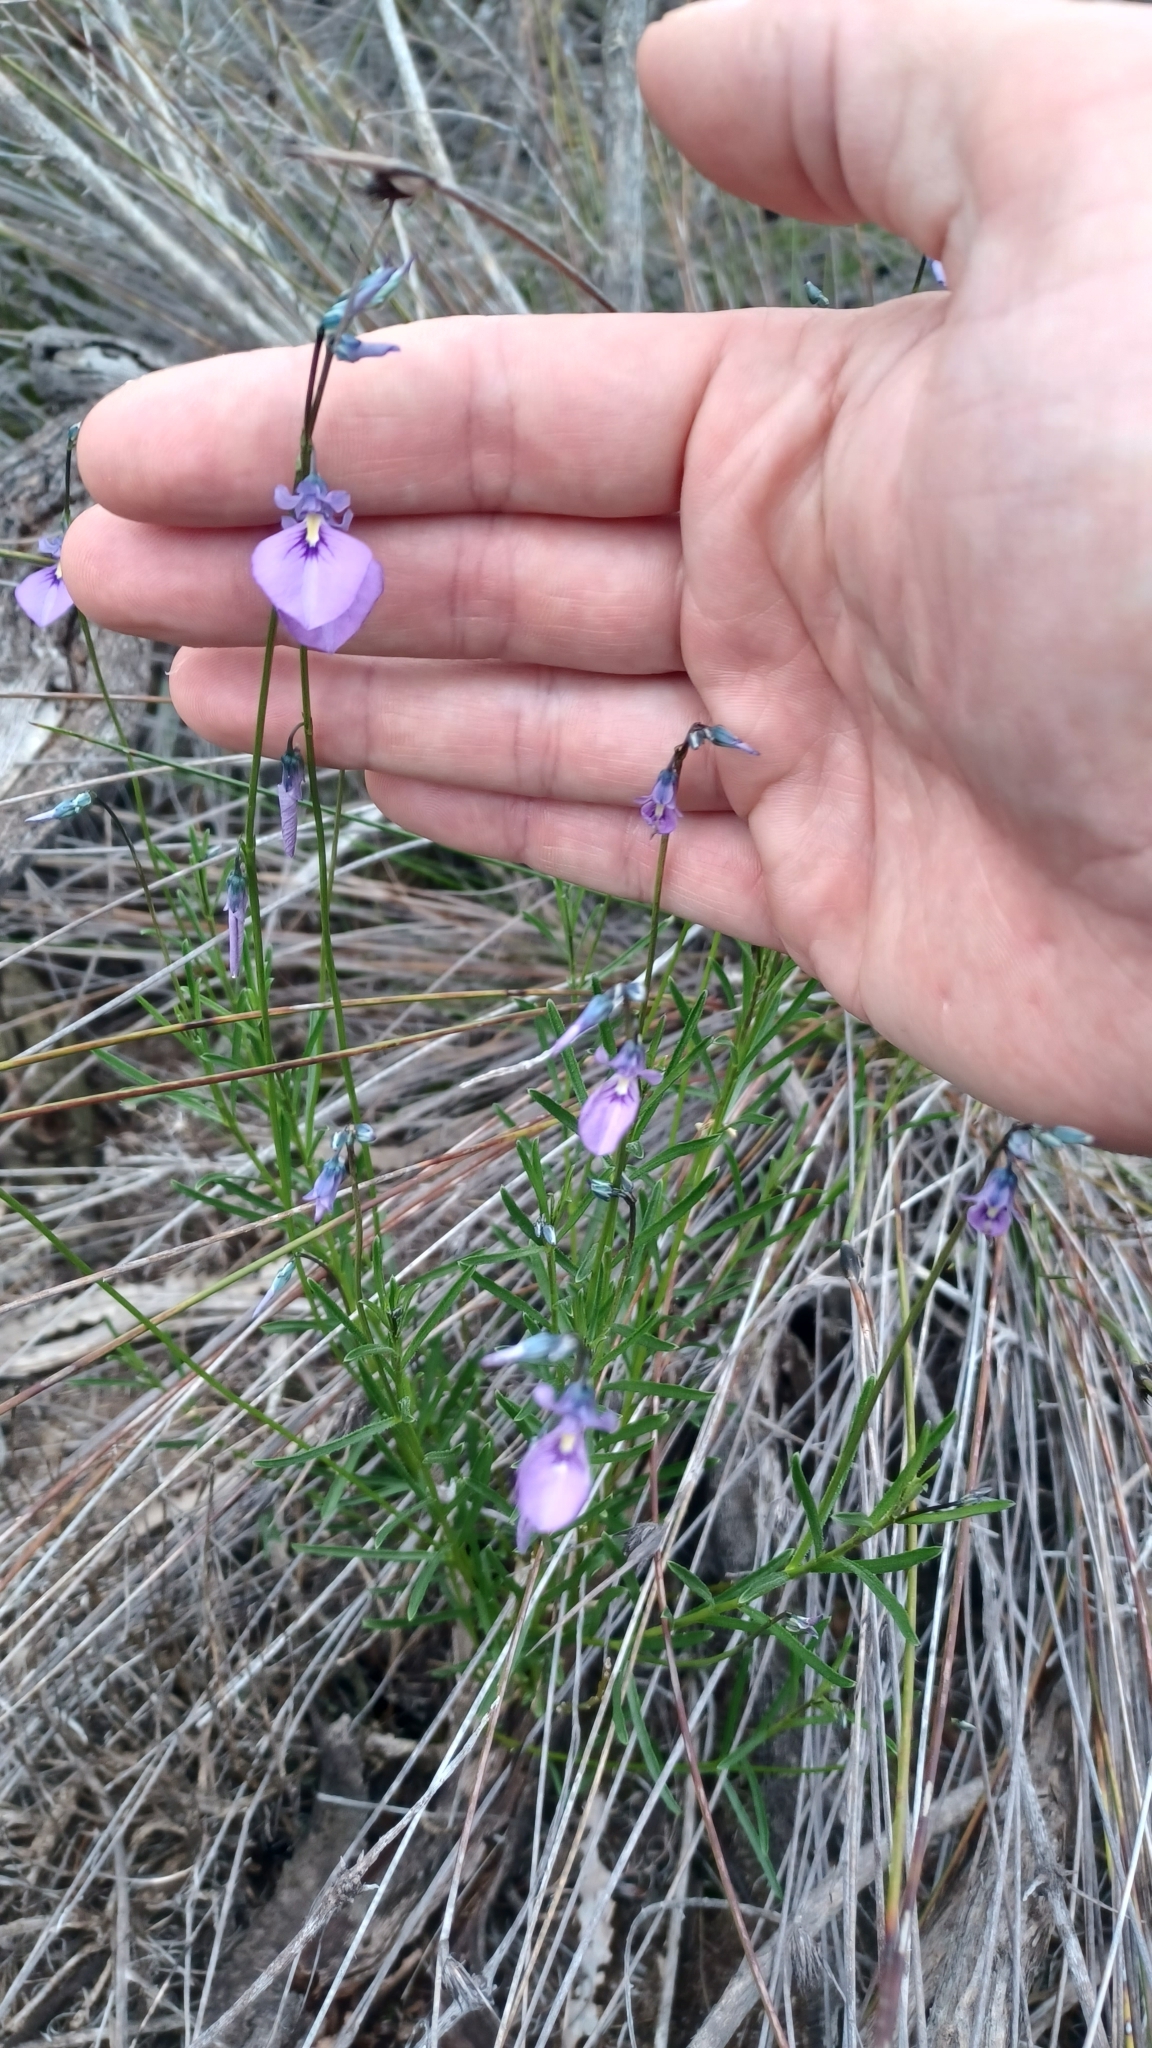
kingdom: Plantae
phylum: Tracheophyta
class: Magnoliopsida
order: Malpighiales
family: Violaceae
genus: Pigea
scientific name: Pigea calycina
